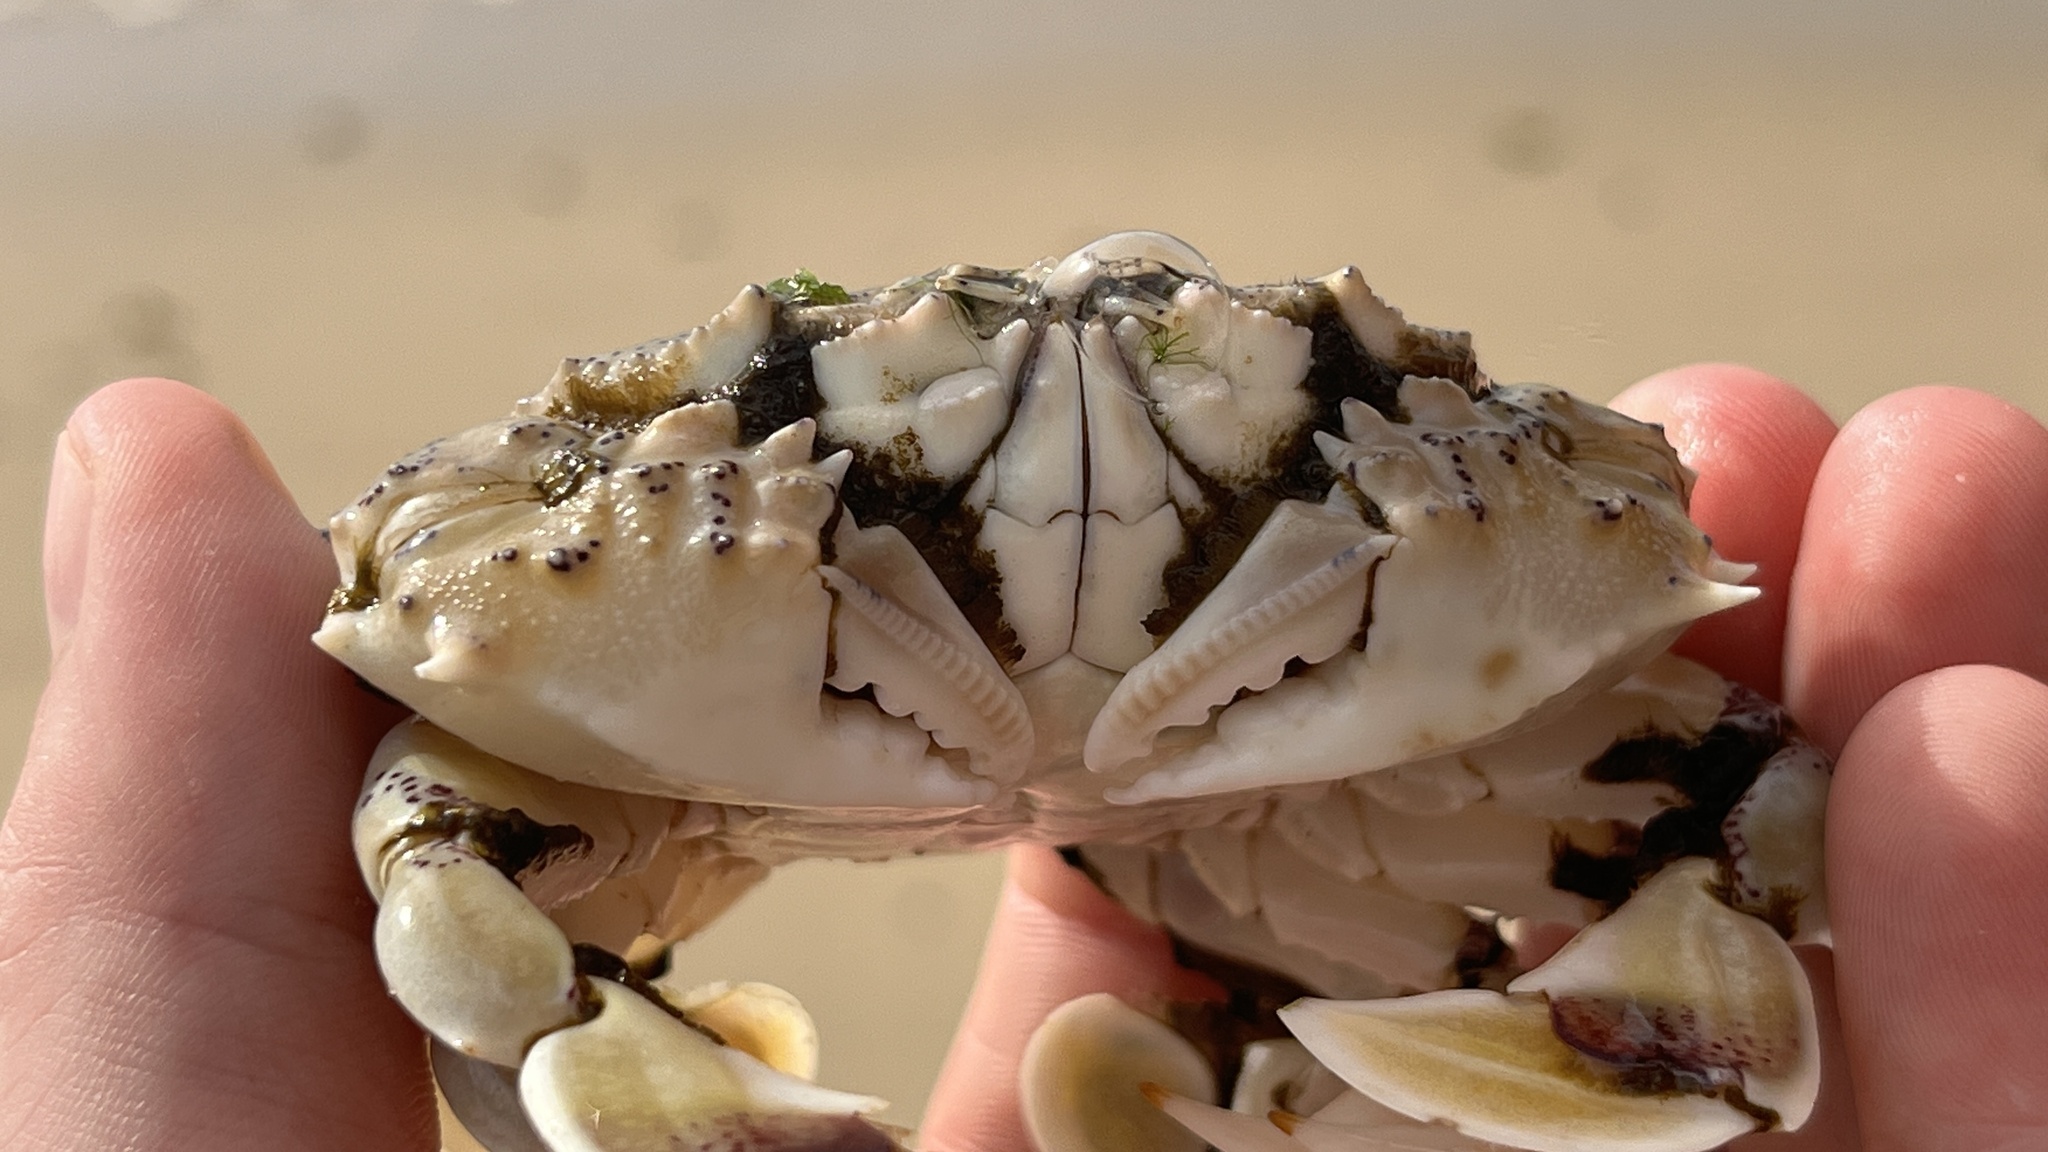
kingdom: Animalia
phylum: Arthropoda
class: Malacostraca
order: Decapoda
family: Matutidae
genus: Matuta
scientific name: Matuta victor
